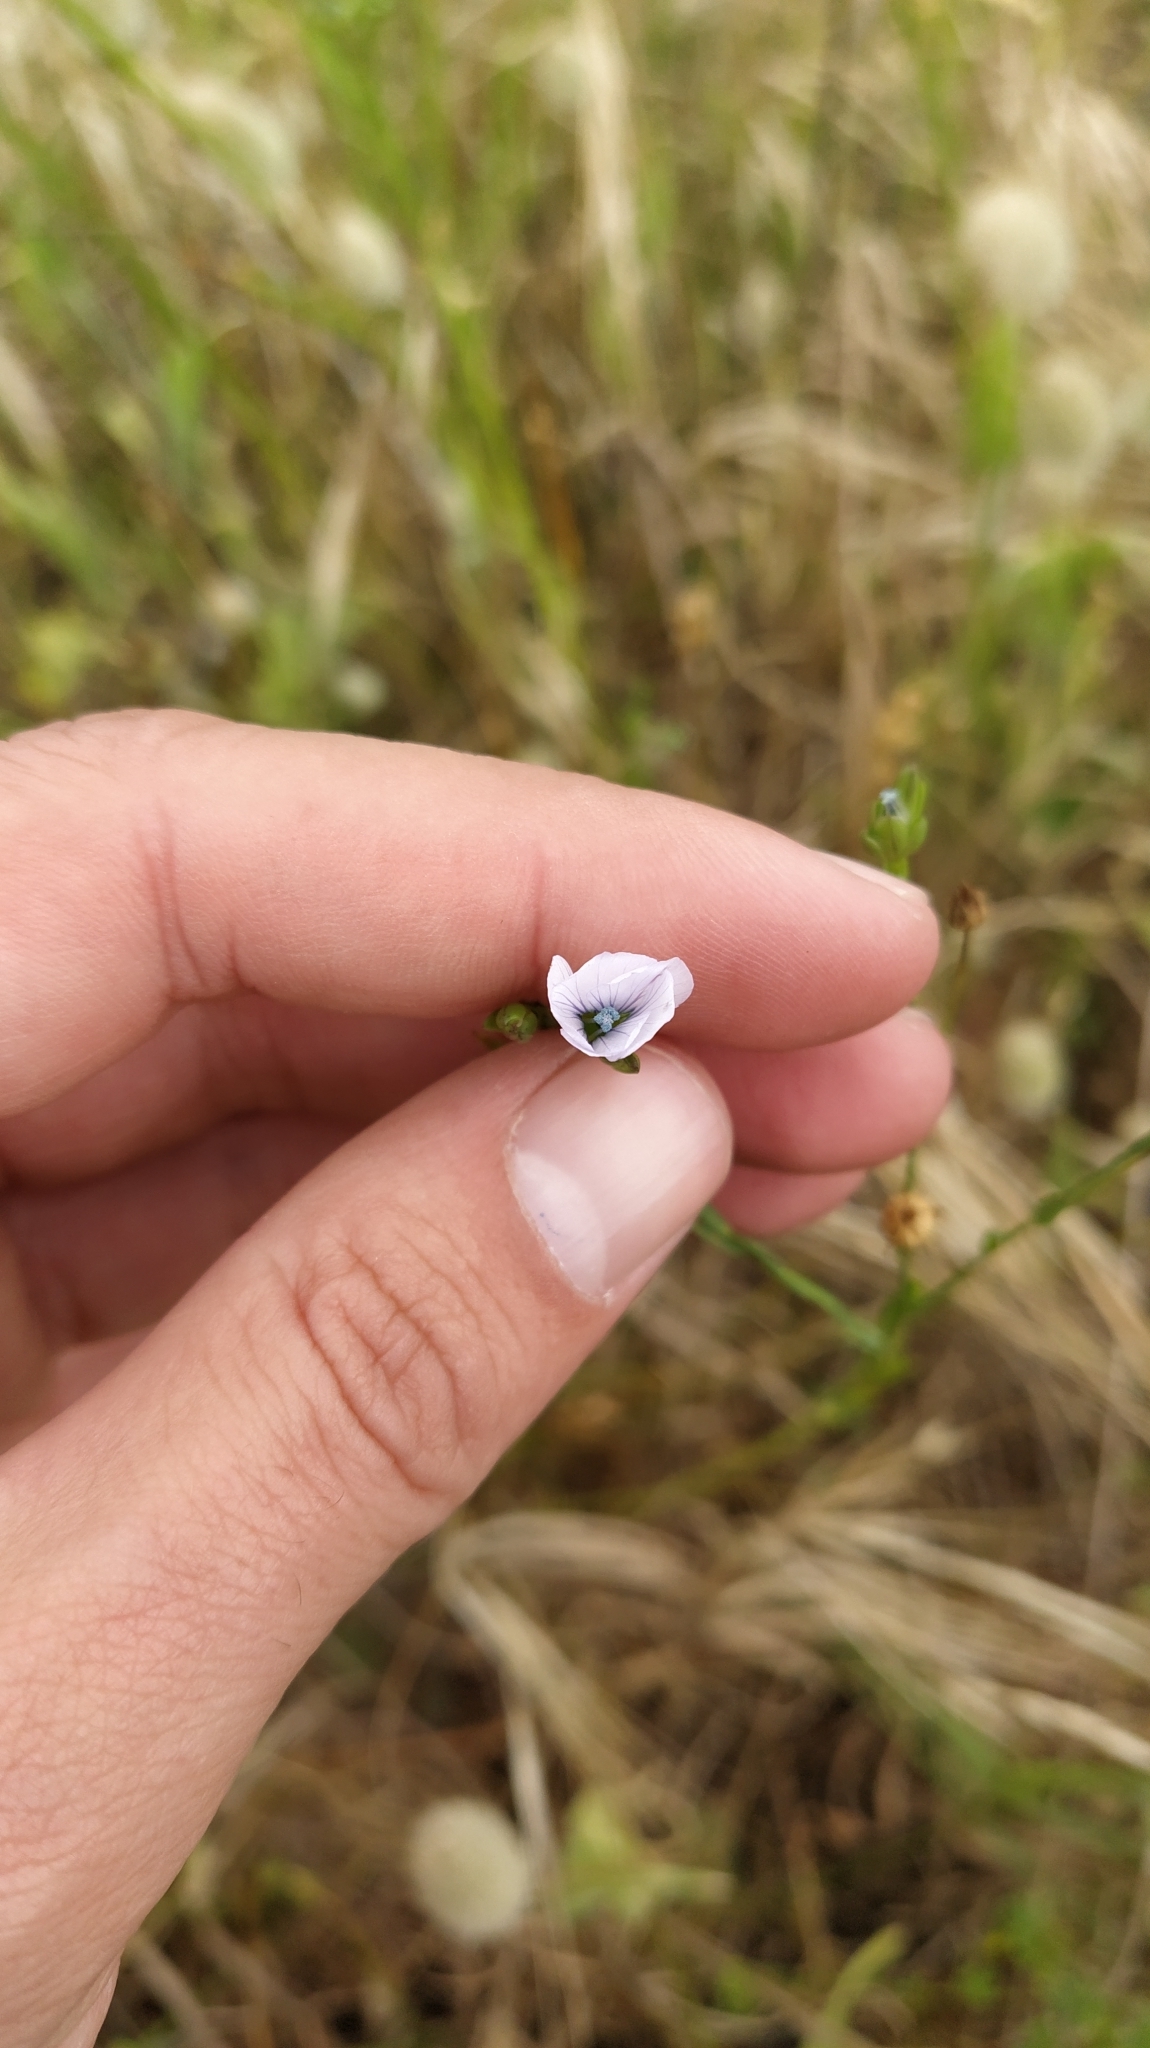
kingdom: Plantae
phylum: Tracheophyta
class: Magnoliopsida
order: Malpighiales
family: Linaceae
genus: Linum
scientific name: Linum bienne
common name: Pale flax
